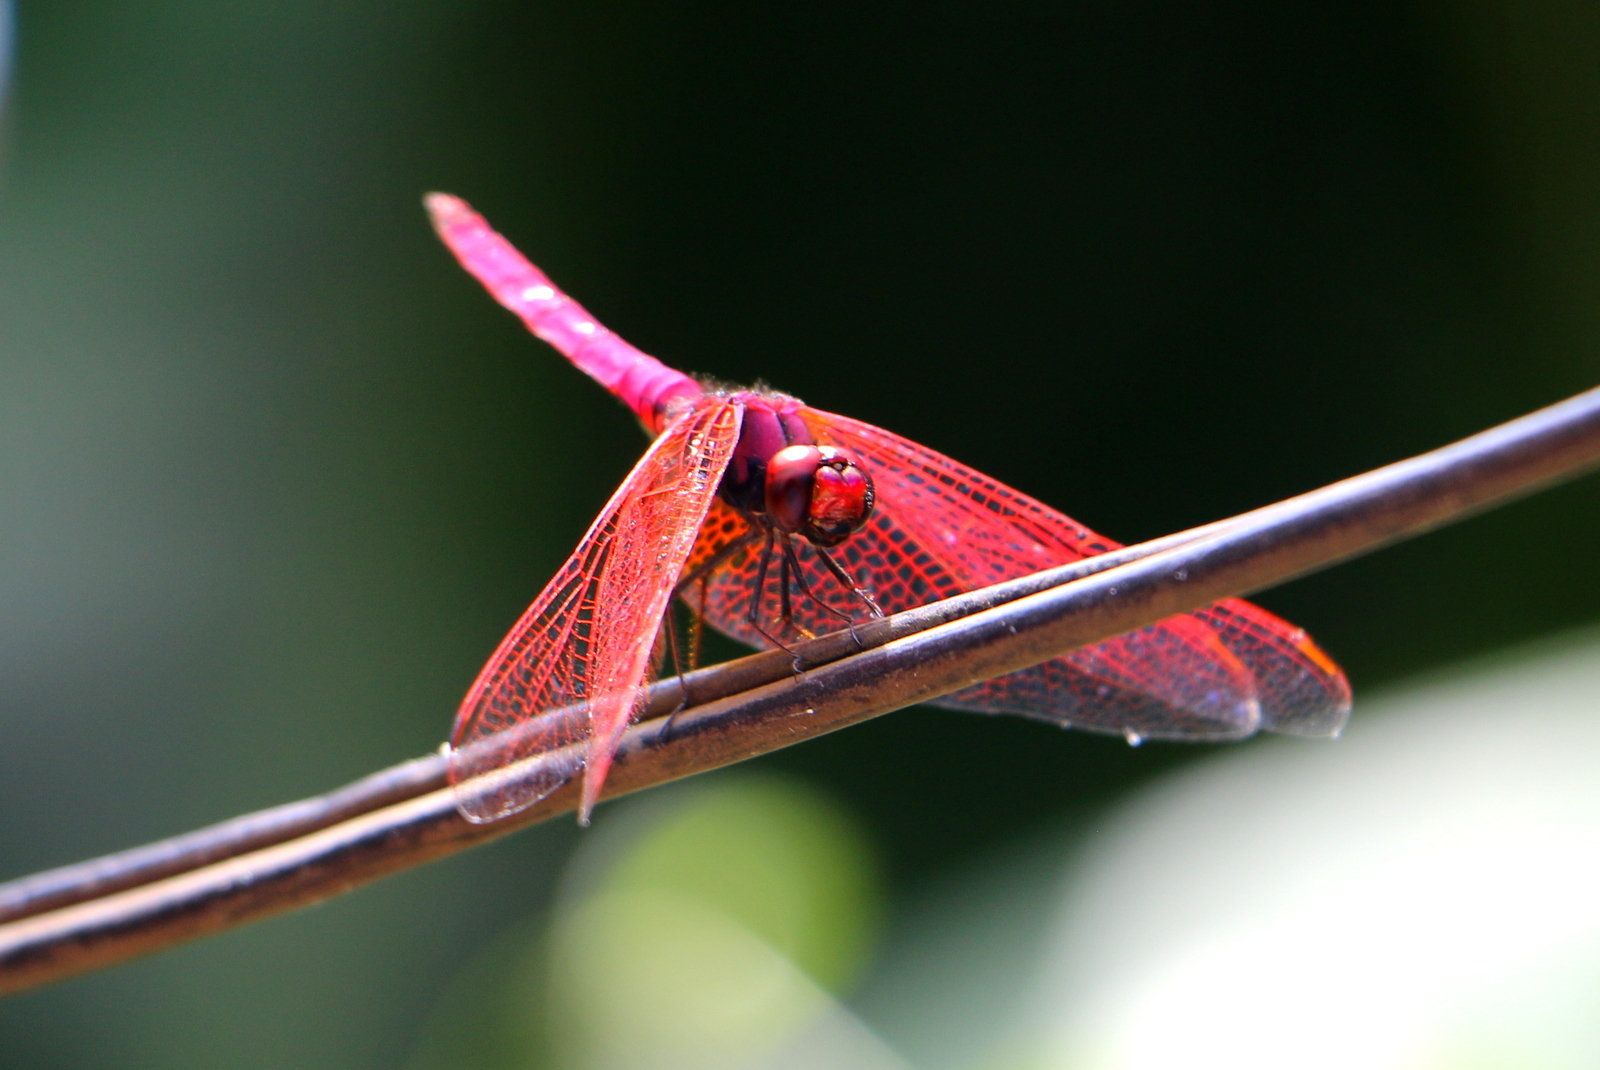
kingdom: Animalia
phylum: Arthropoda
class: Insecta
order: Odonata
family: Libellulidae
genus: Trithemis
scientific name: Trithemis aurora
